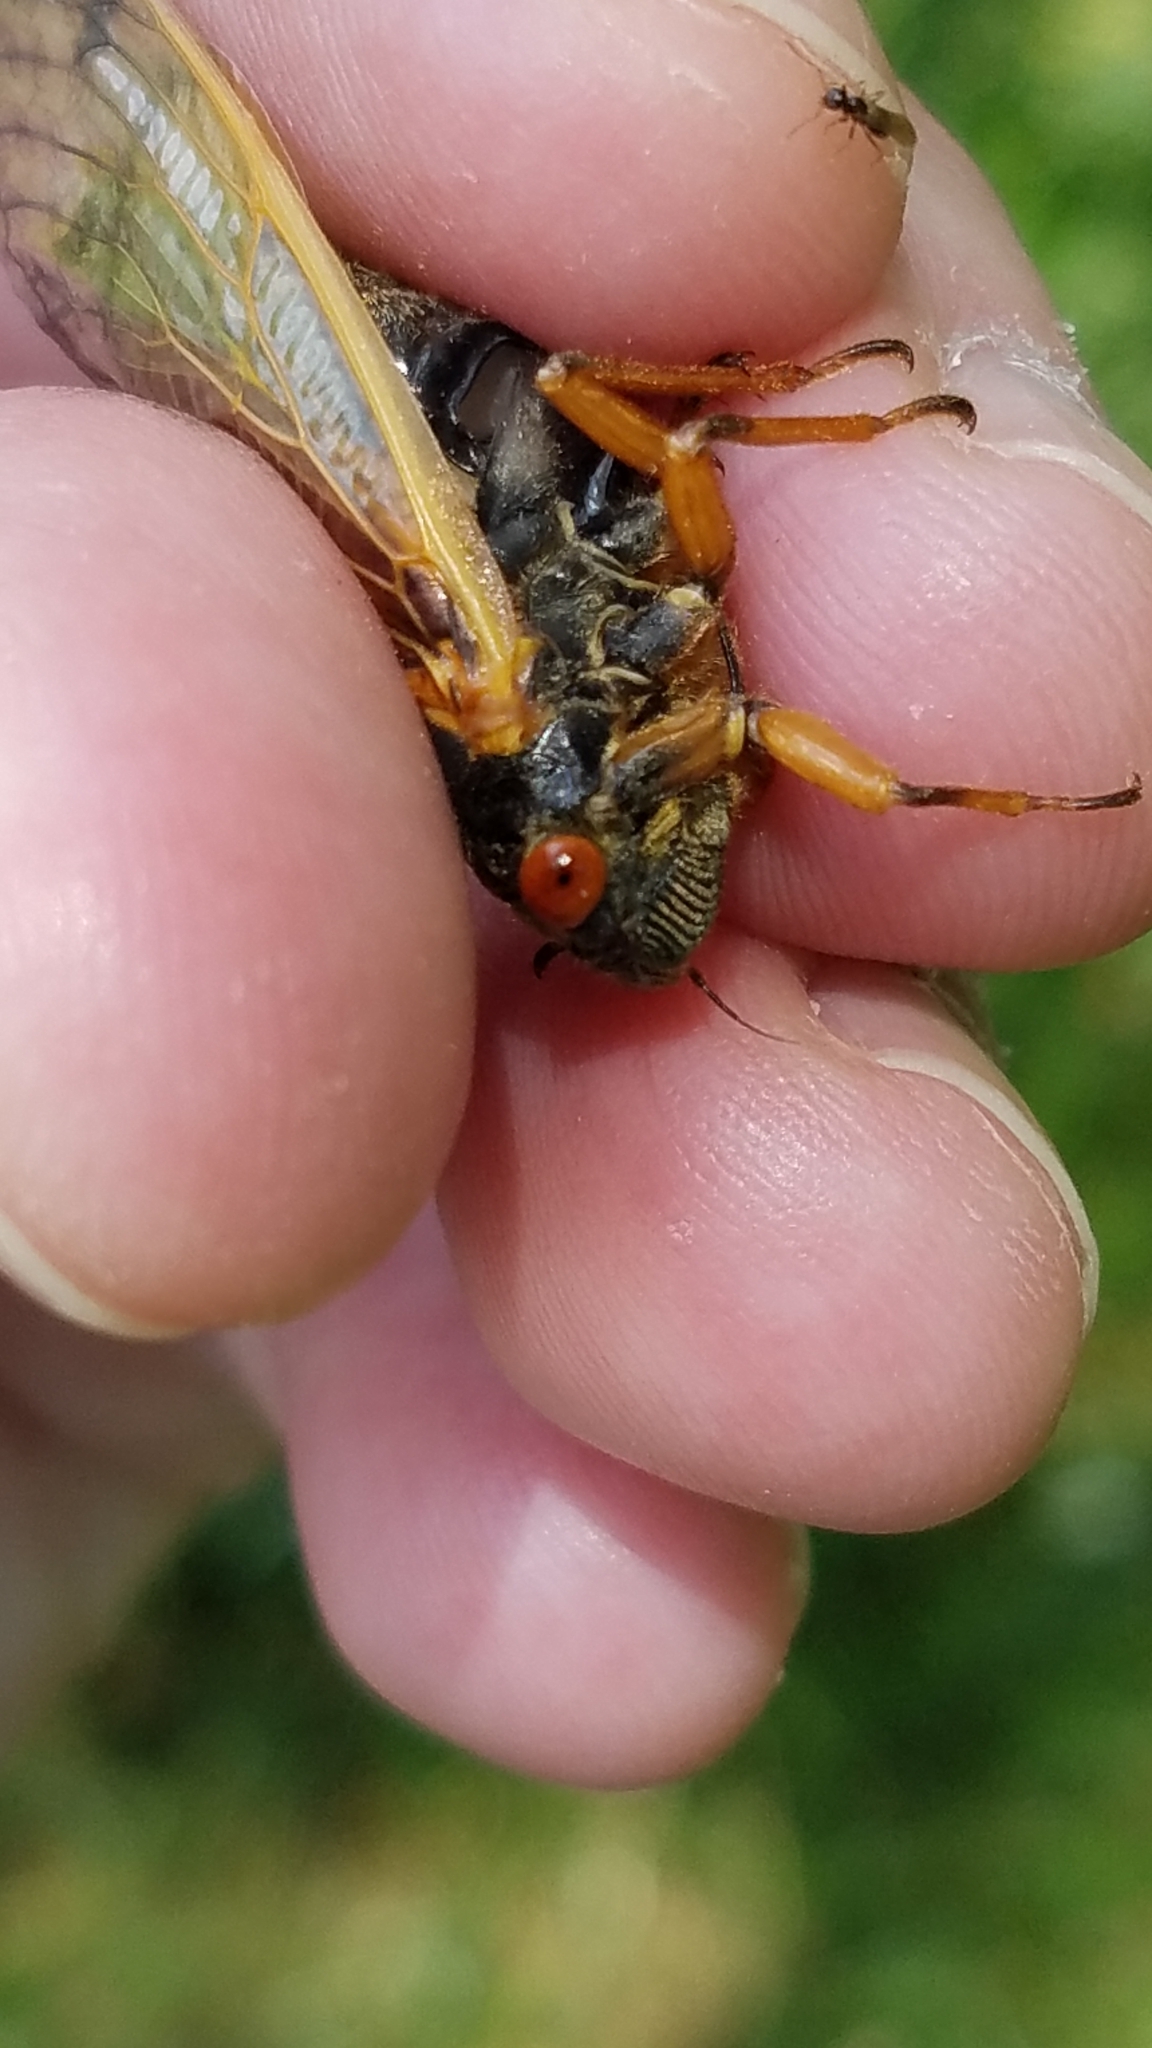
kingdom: Animalia
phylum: Arthropoda
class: Insecta
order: Hemiptera
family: Cicadidae
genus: Magicicada
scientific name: Magicicada cassini
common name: Cassin's 17-year cicada
